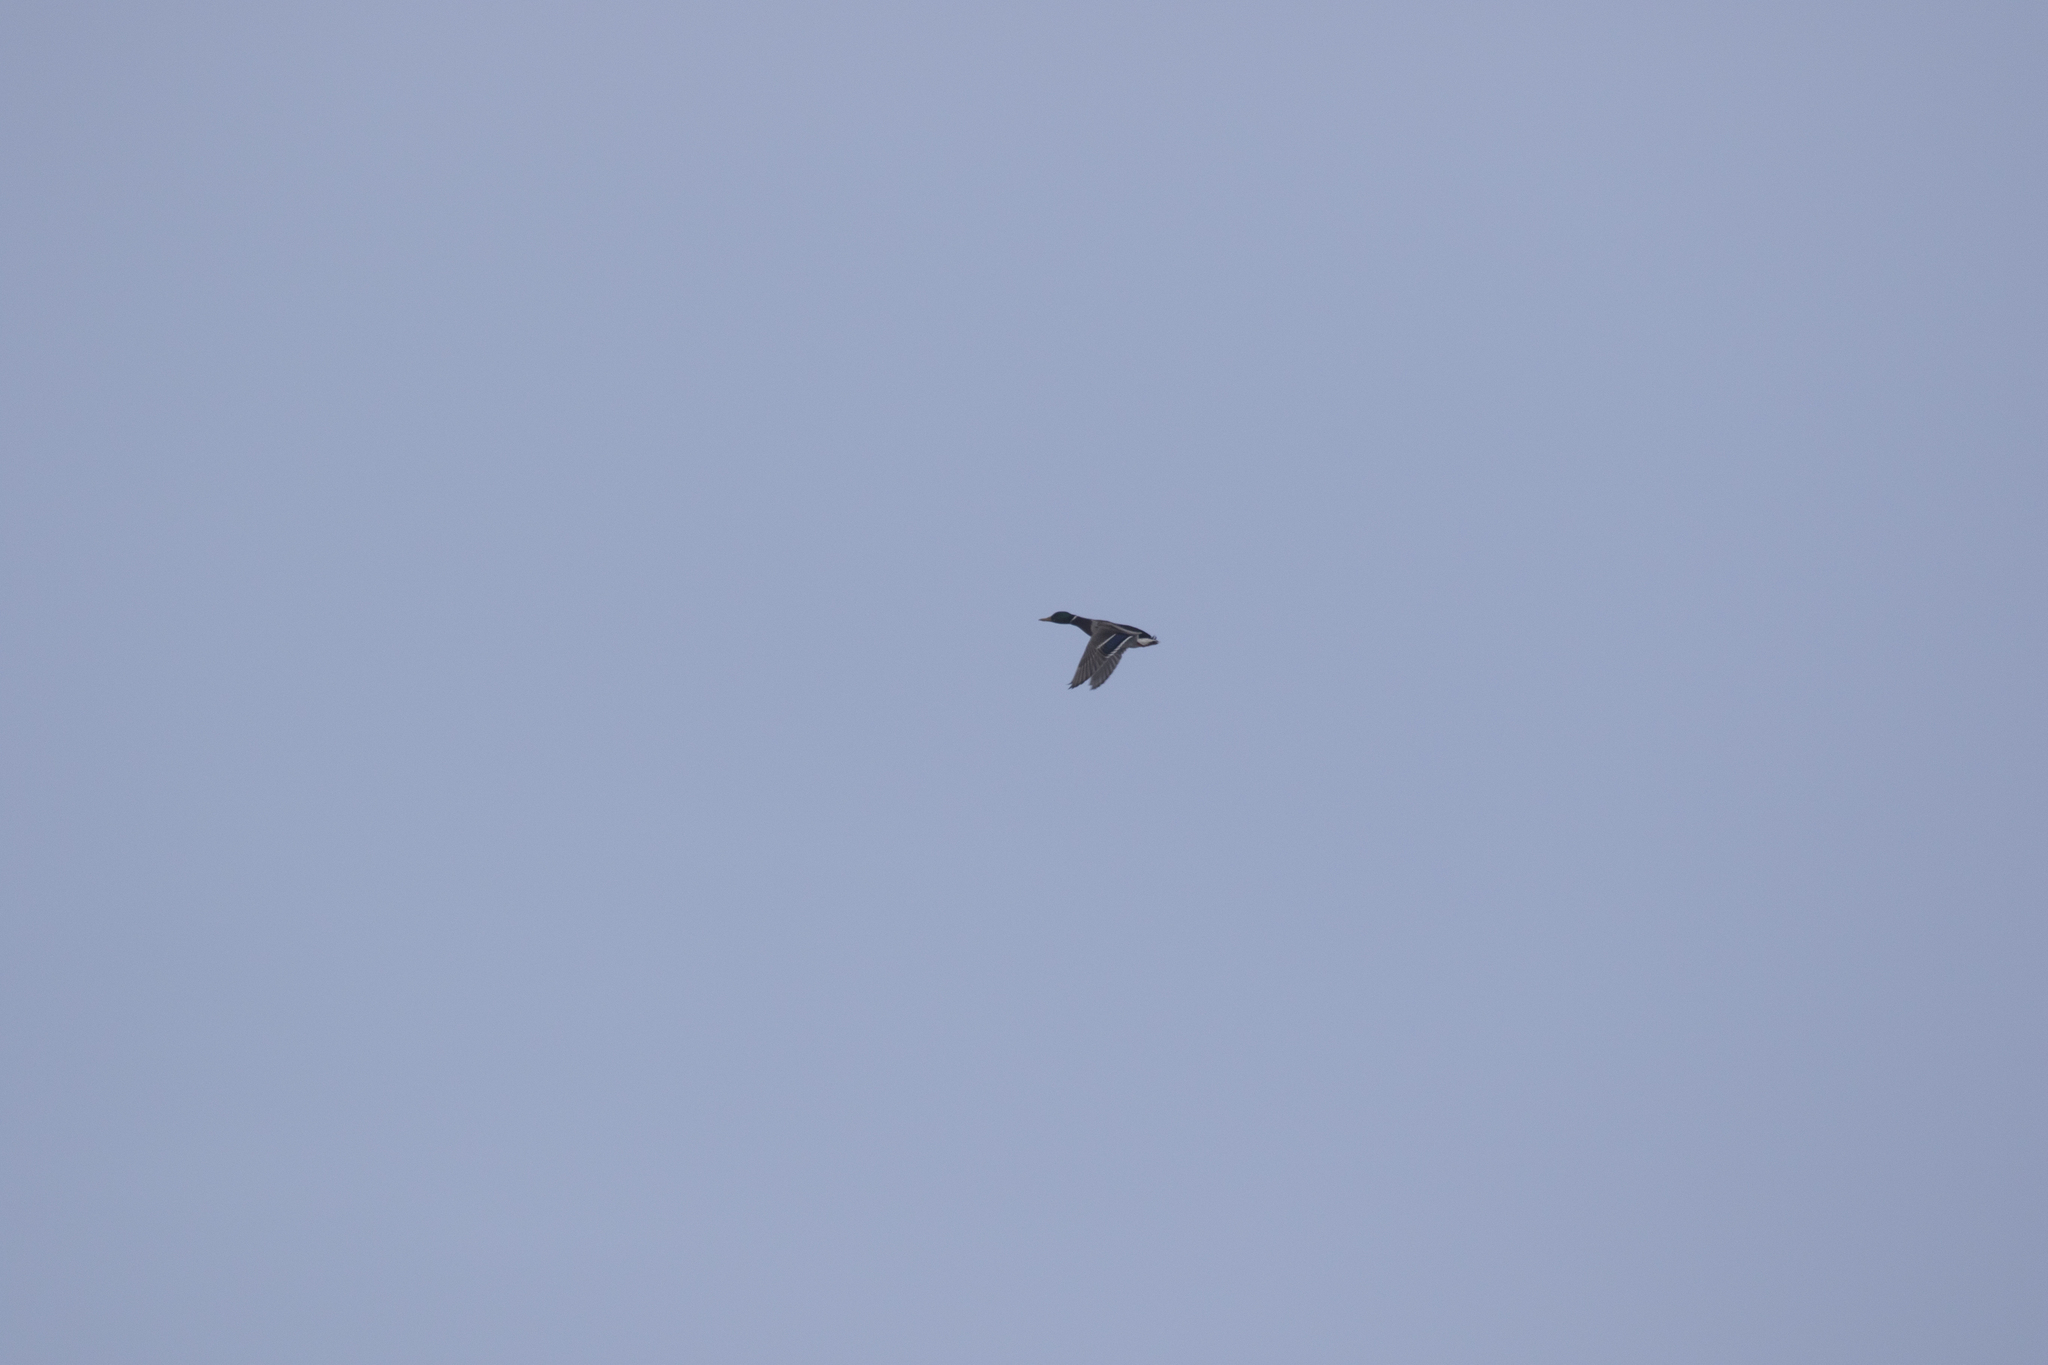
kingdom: Animalia
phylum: Chordata
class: Aves
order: Anseriformes
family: Anatidae
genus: Anas
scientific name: Anas platyrhynchos
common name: Mallard
